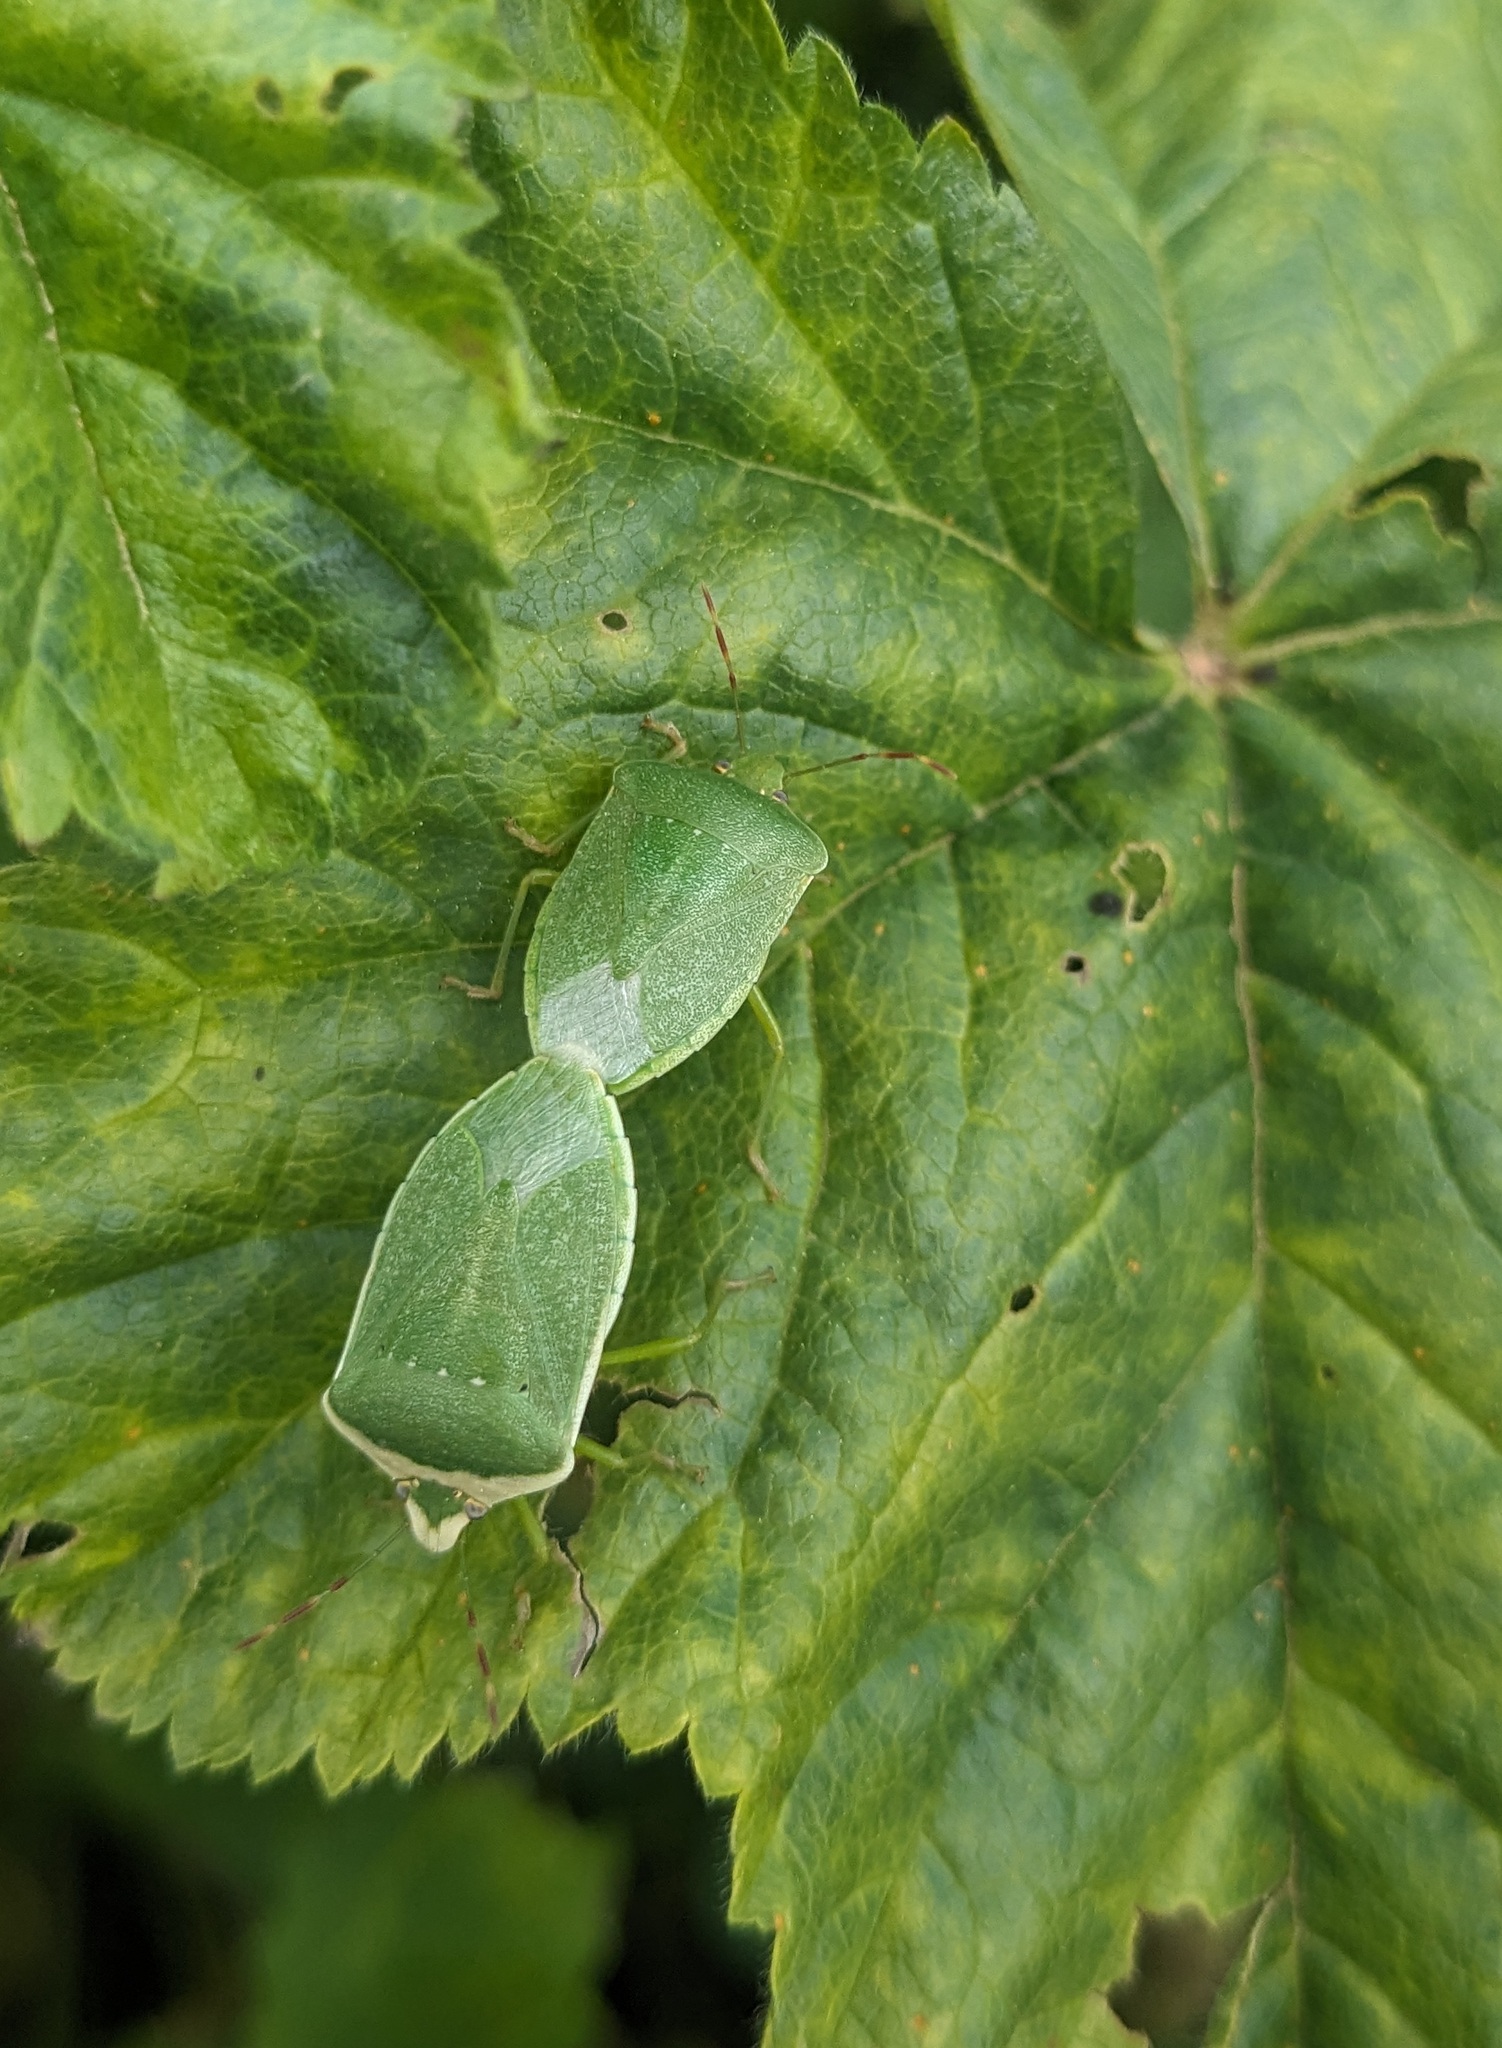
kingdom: Animalia
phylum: Arthropoda
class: Insecta
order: Hemiptera
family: Pentatomidae
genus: Nezara
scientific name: Nezara viridula
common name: Southern green stink bug
